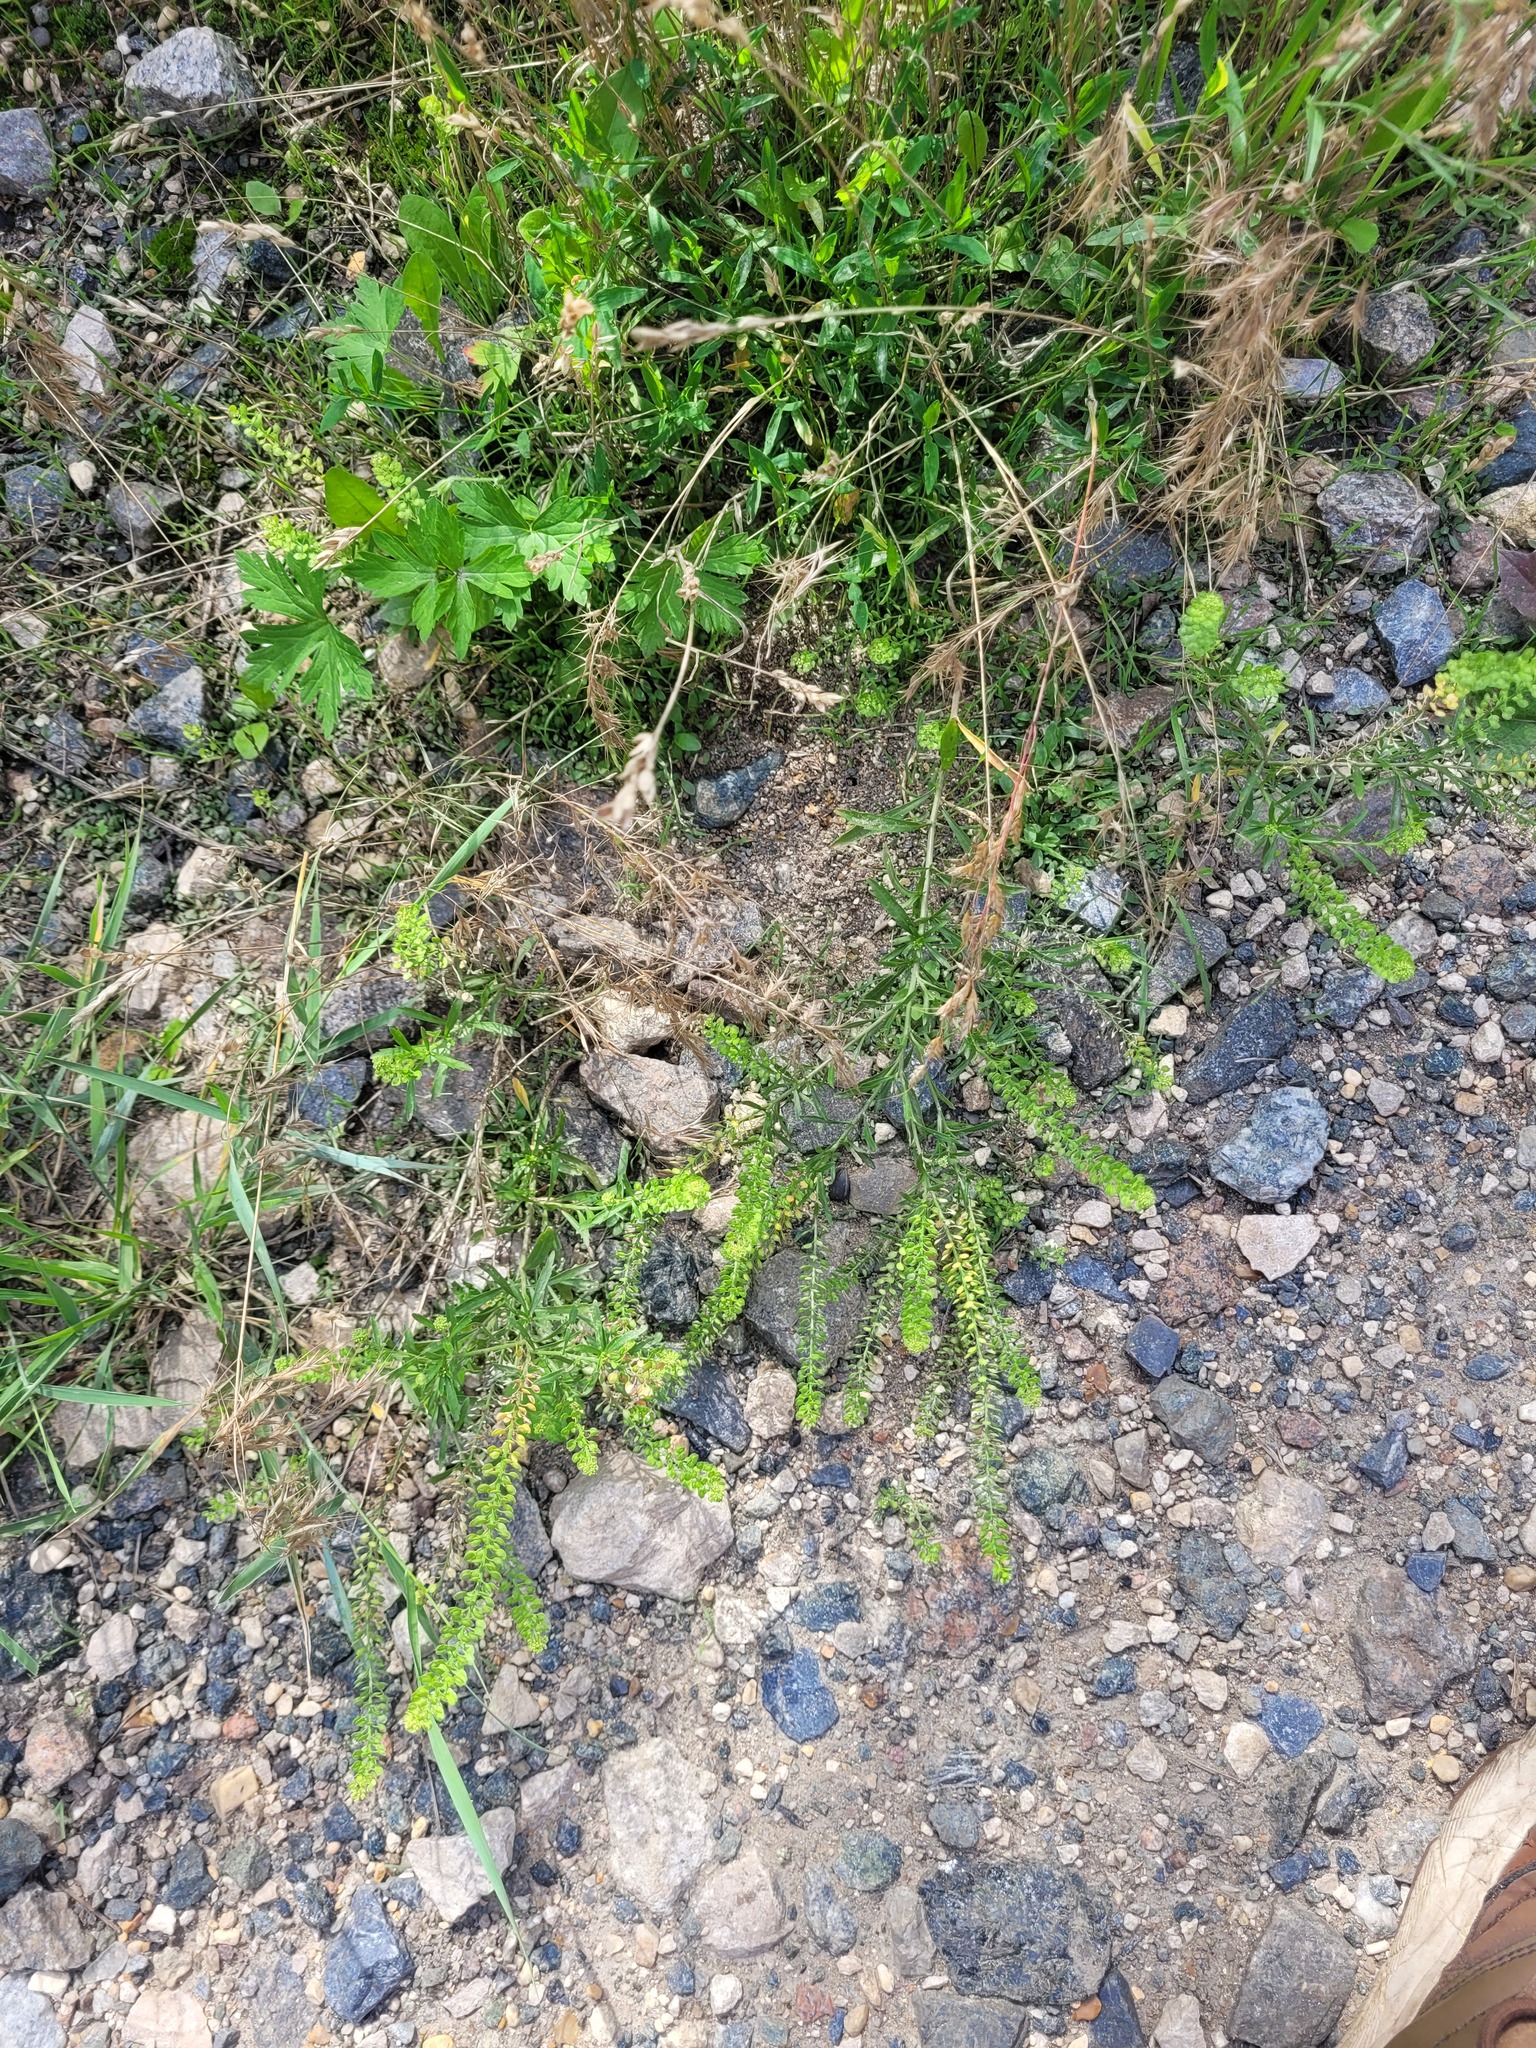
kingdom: Plantae
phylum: Tracheophyta
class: Magnoliopsida
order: Brassicales
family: Brassicaceae
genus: Lepidium
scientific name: Lepidium densiflorum
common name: Miner's pepperwort
